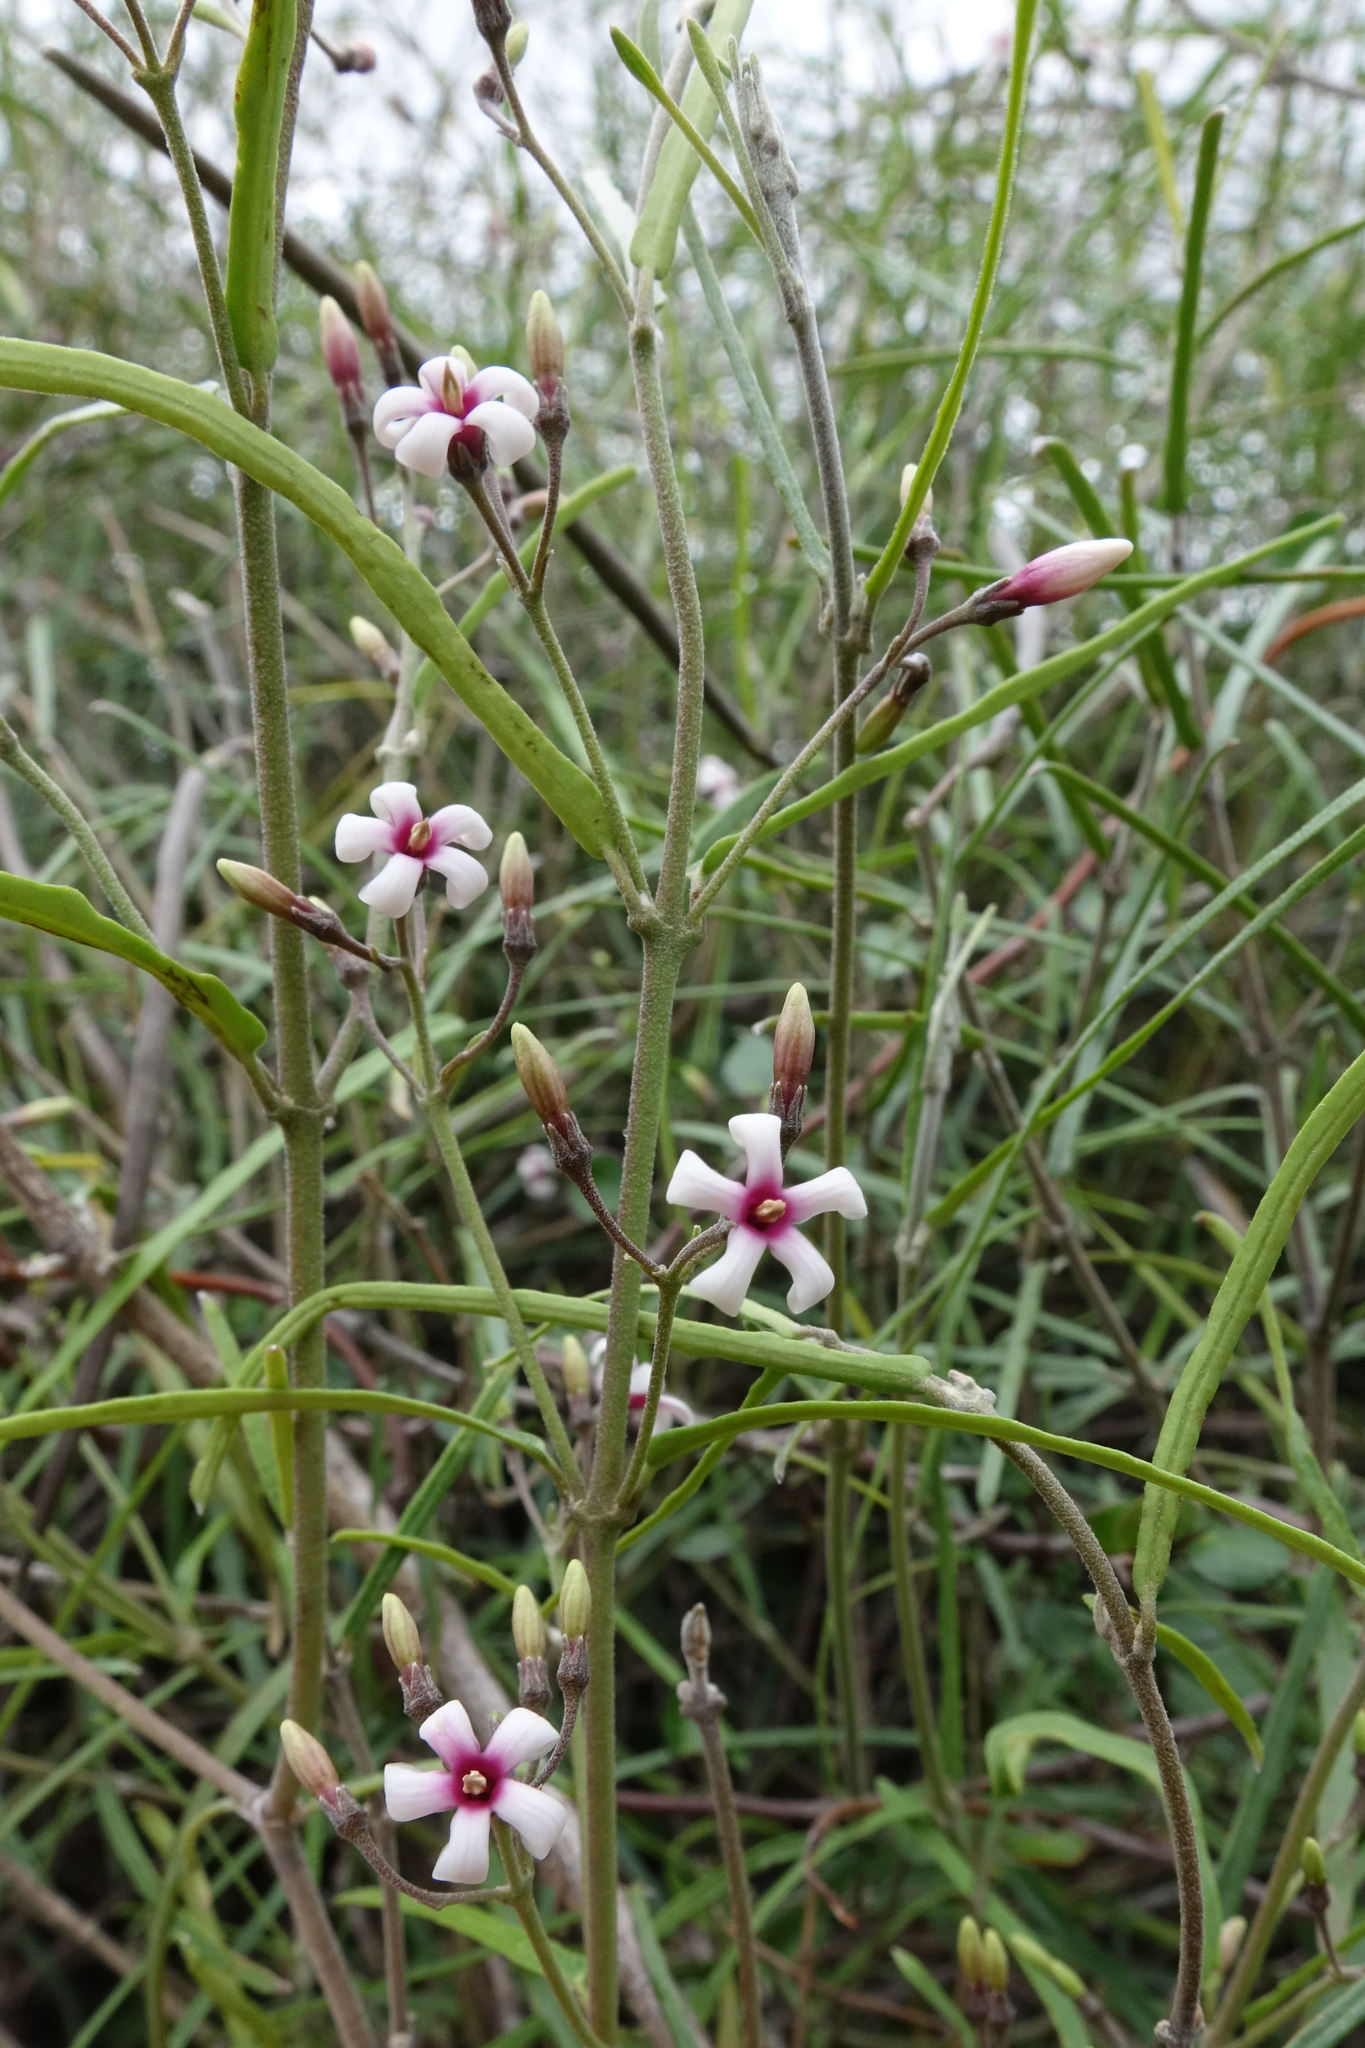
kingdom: Plantae
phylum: Tracheophyta
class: Magnoliopsida
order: Gentianales
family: Apocynaceae
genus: Parsonsia
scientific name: Parsonsia capsularis
